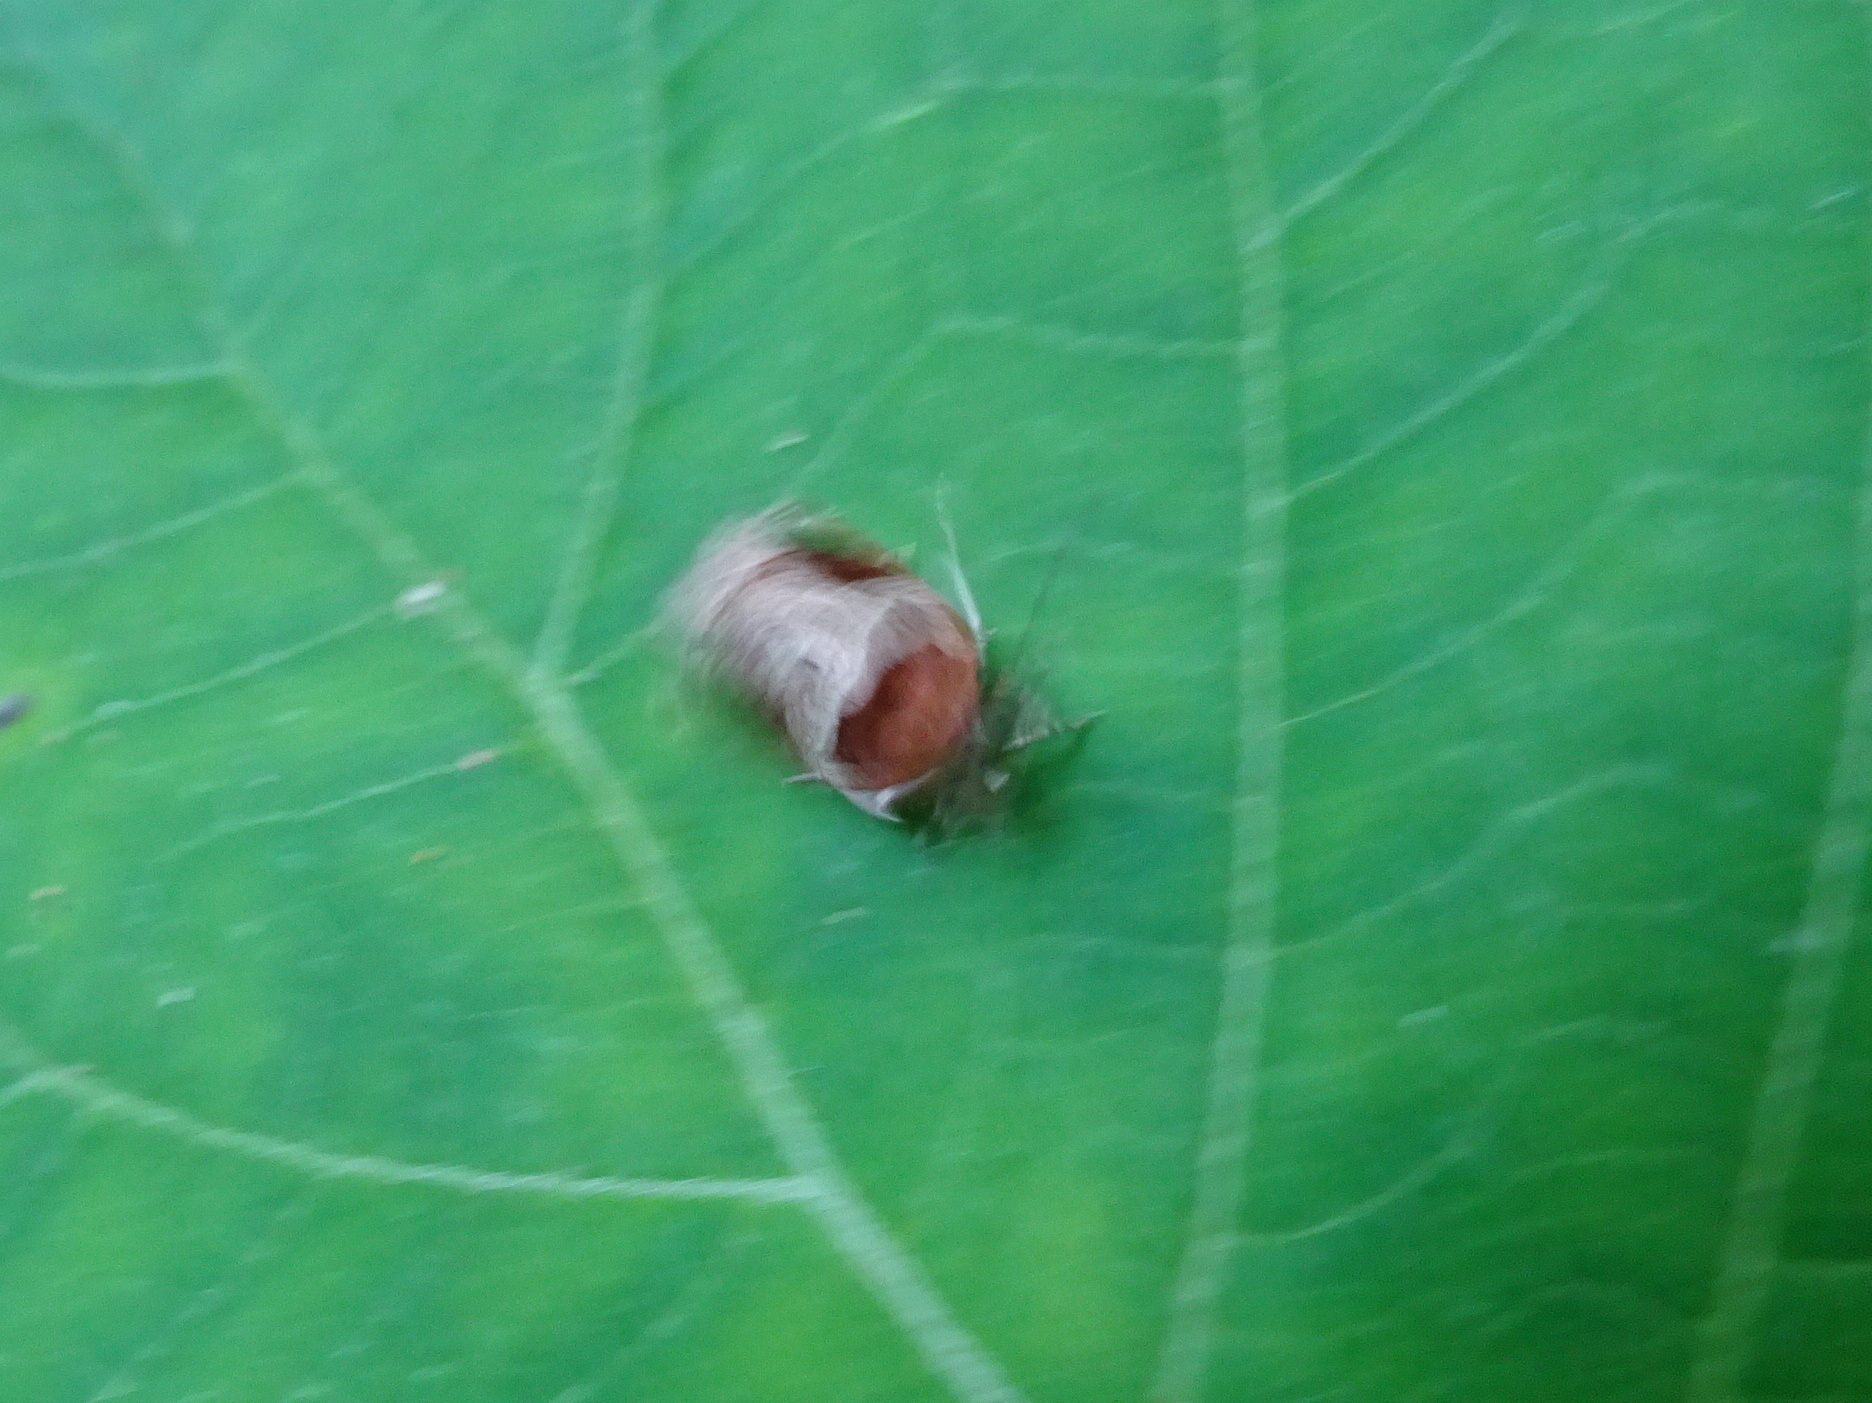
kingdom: Animalia
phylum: Arthropoda
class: Insecta
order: Lepidoptera
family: Tortricidae
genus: Olethreutes
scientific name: Olethreutes ferriferana
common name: Hydrangea leaftier moth
